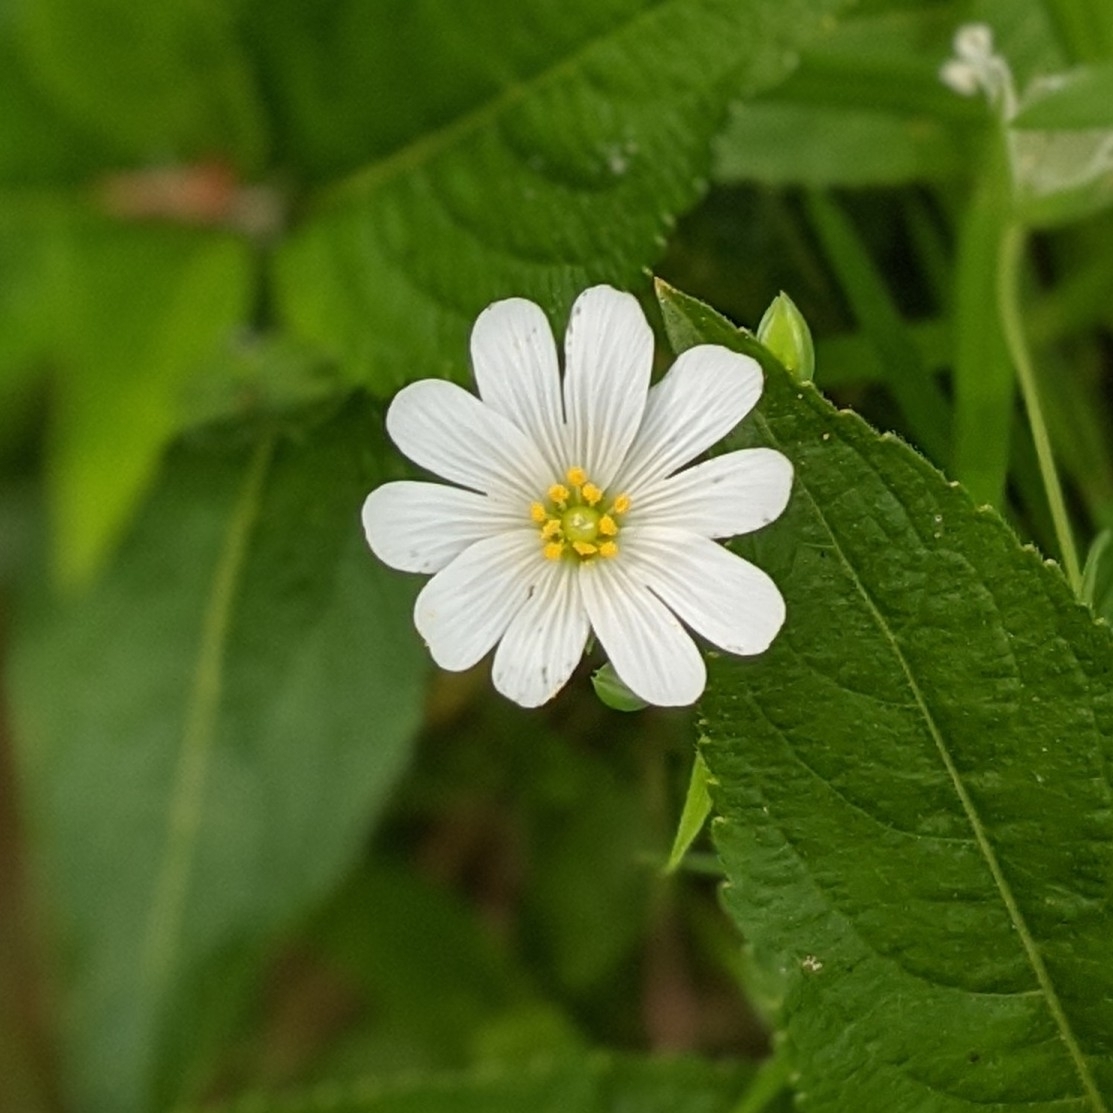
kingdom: Plantae
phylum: Tracheophyta
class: Magnoliopsida
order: Caryophyllales
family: Caryophyllaceae
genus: Rabelera
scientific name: Rabelera holostea
